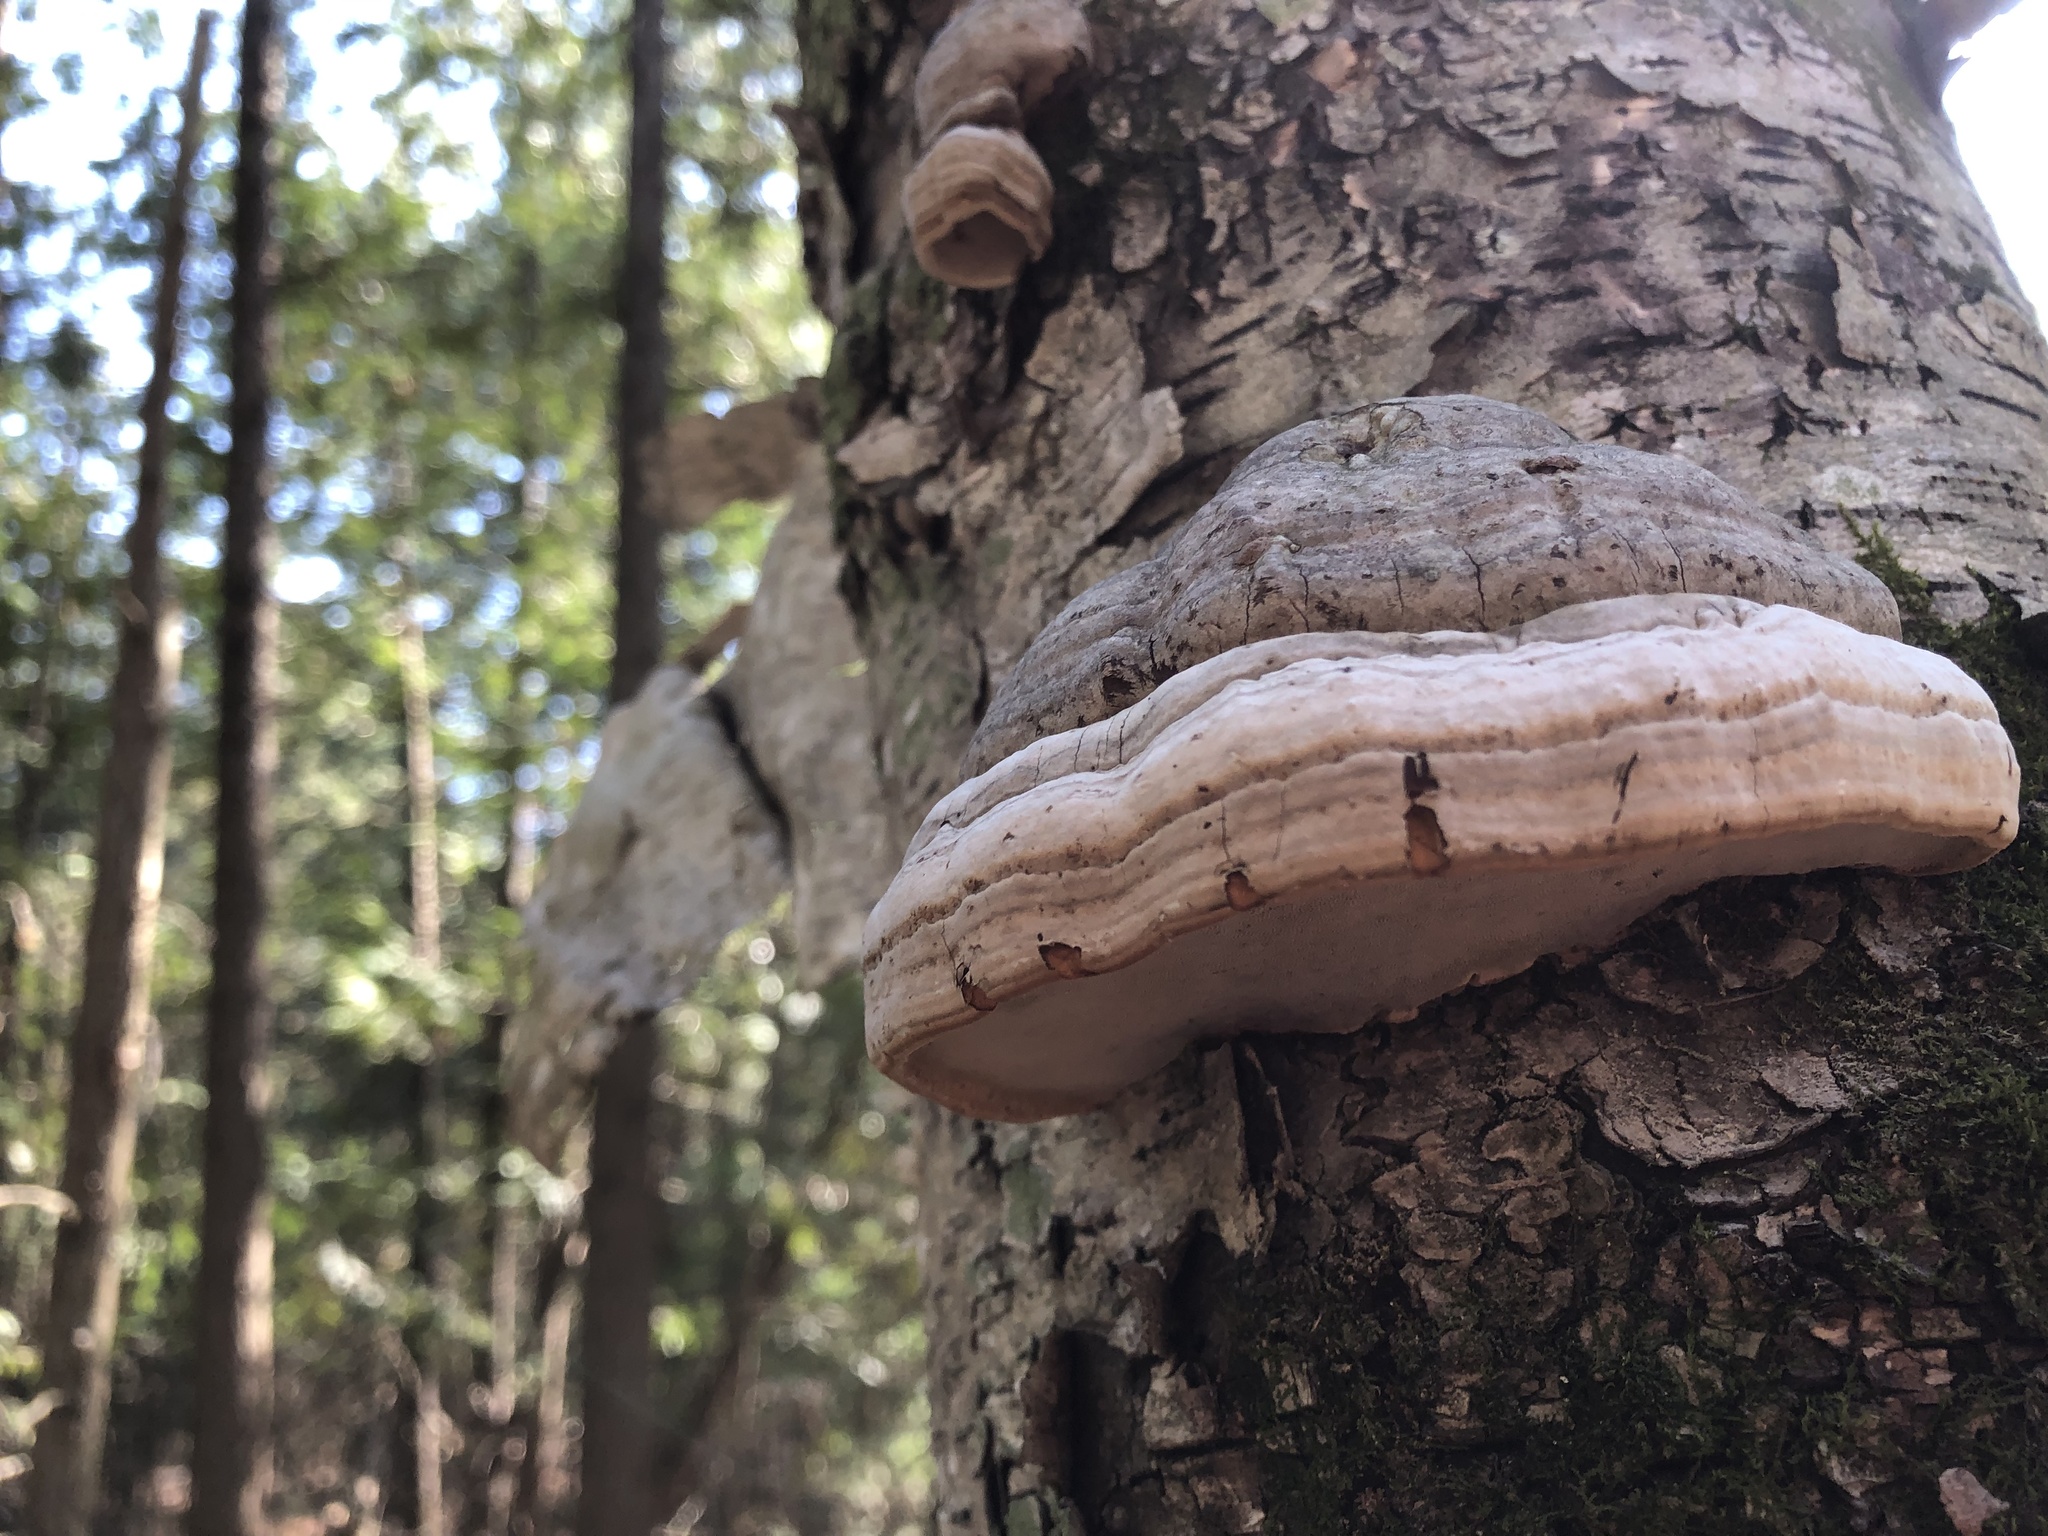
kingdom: Fungi
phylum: Basidiomycota
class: Agaricomycetes
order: Polyporales
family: Polyporaceae
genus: Fomes
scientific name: Fomes fomentarius
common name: Hoof fungus
